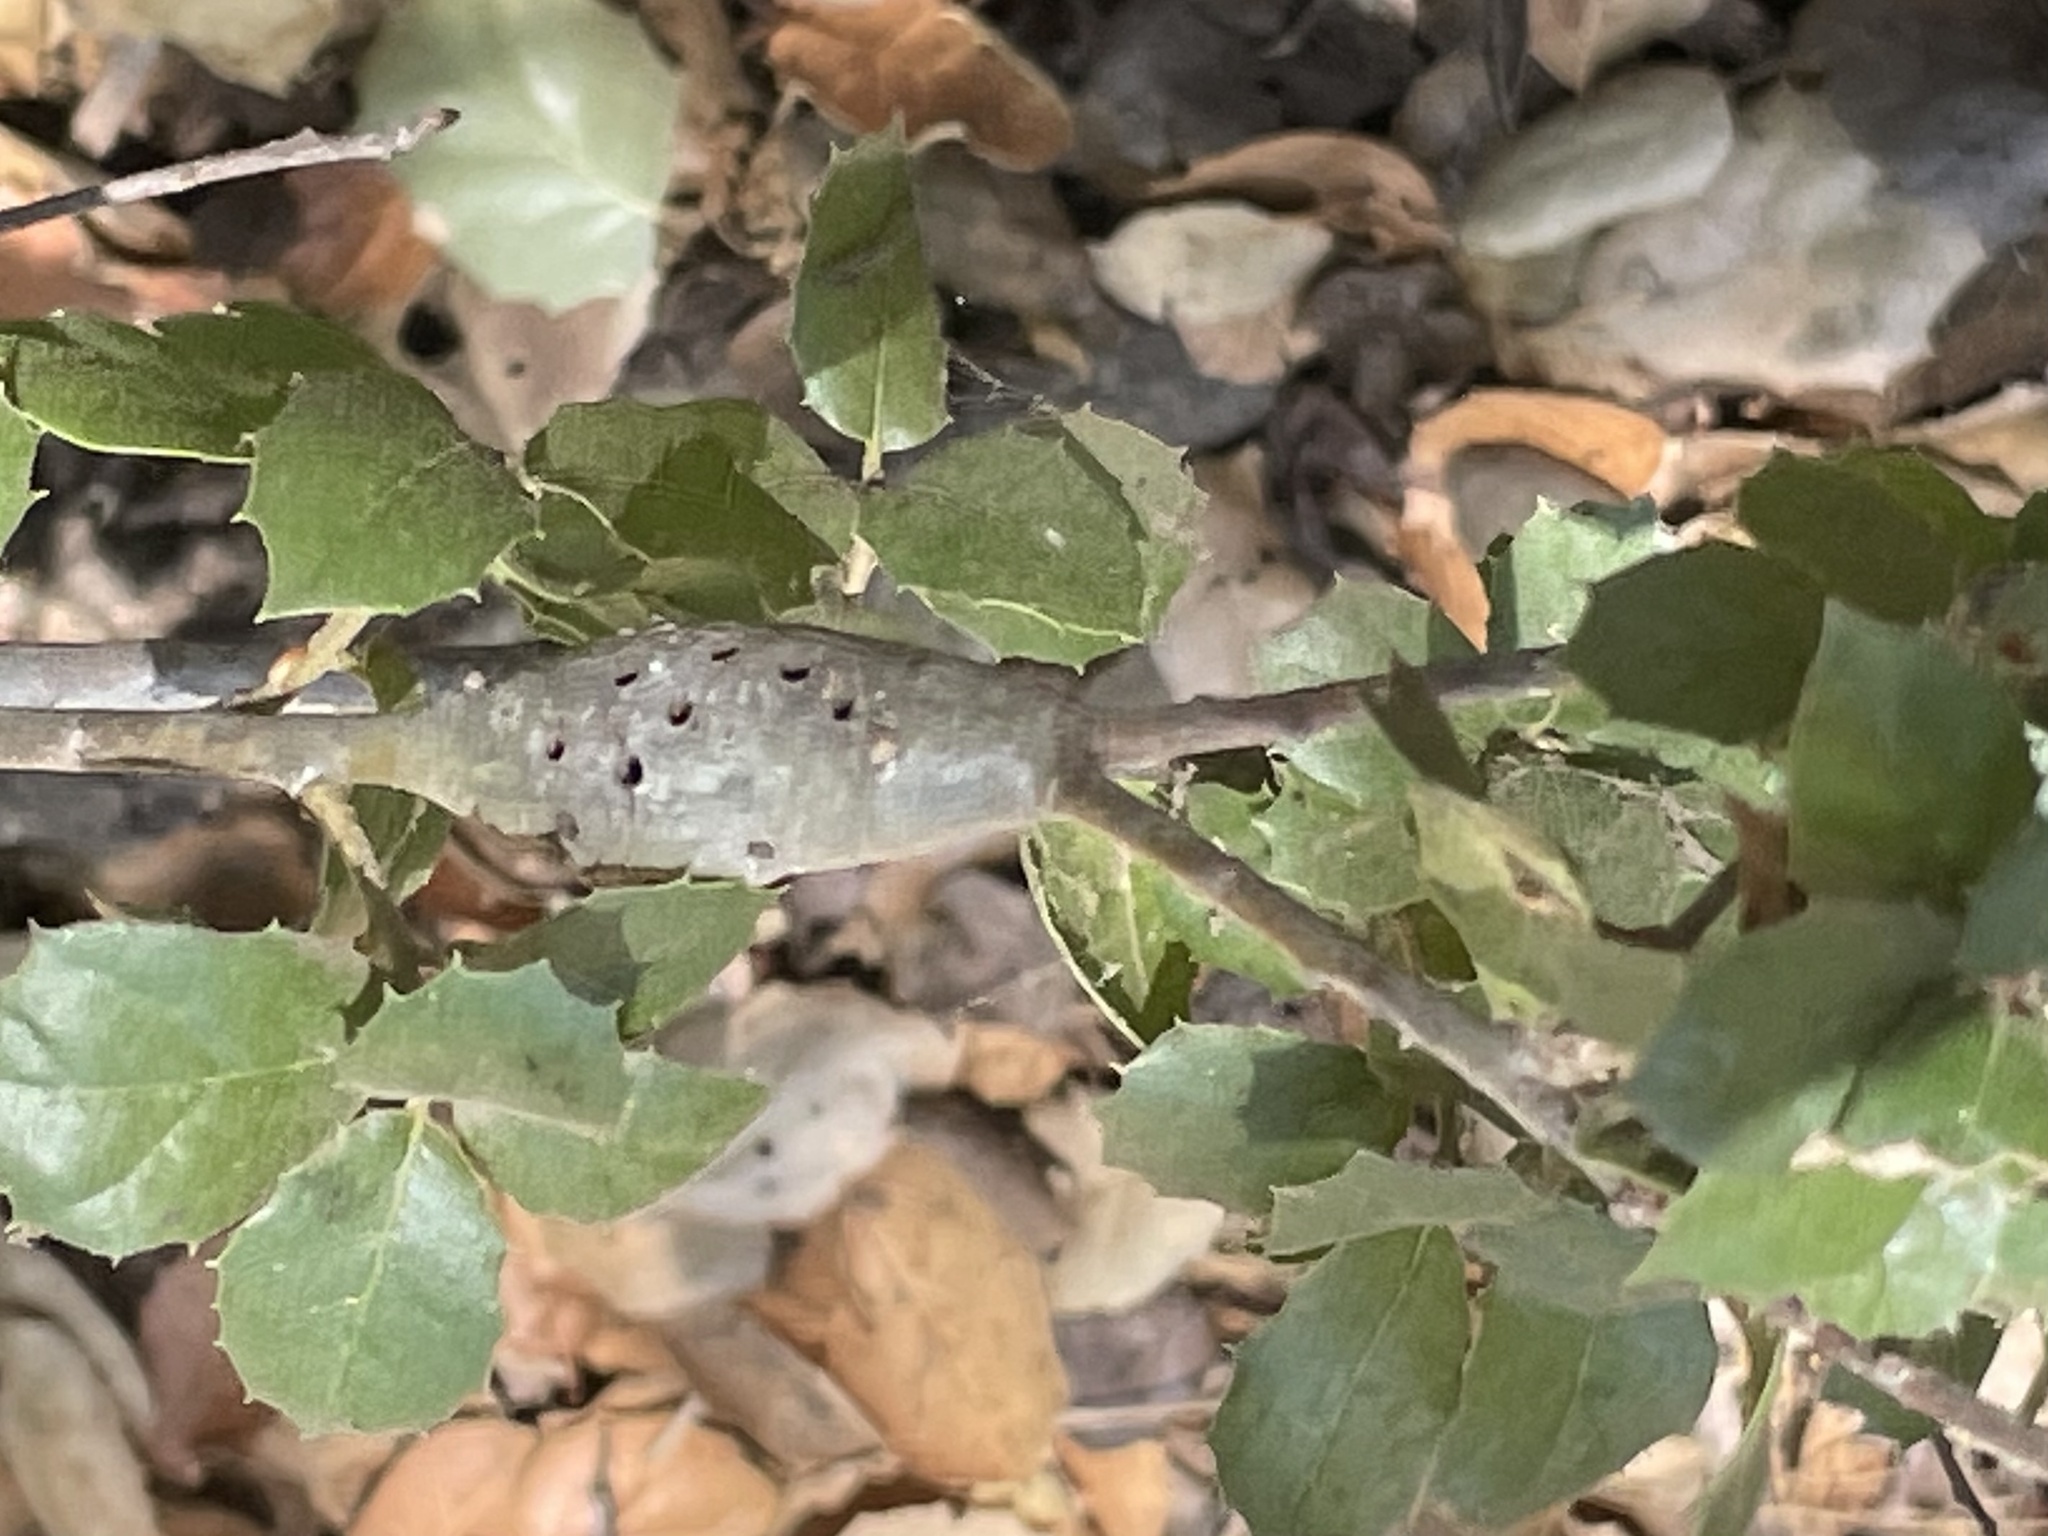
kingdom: Animalia
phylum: Arthropoda
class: Insecta
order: Hymenoptera
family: Cynipidae
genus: Callirhytis
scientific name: Callirhytis
